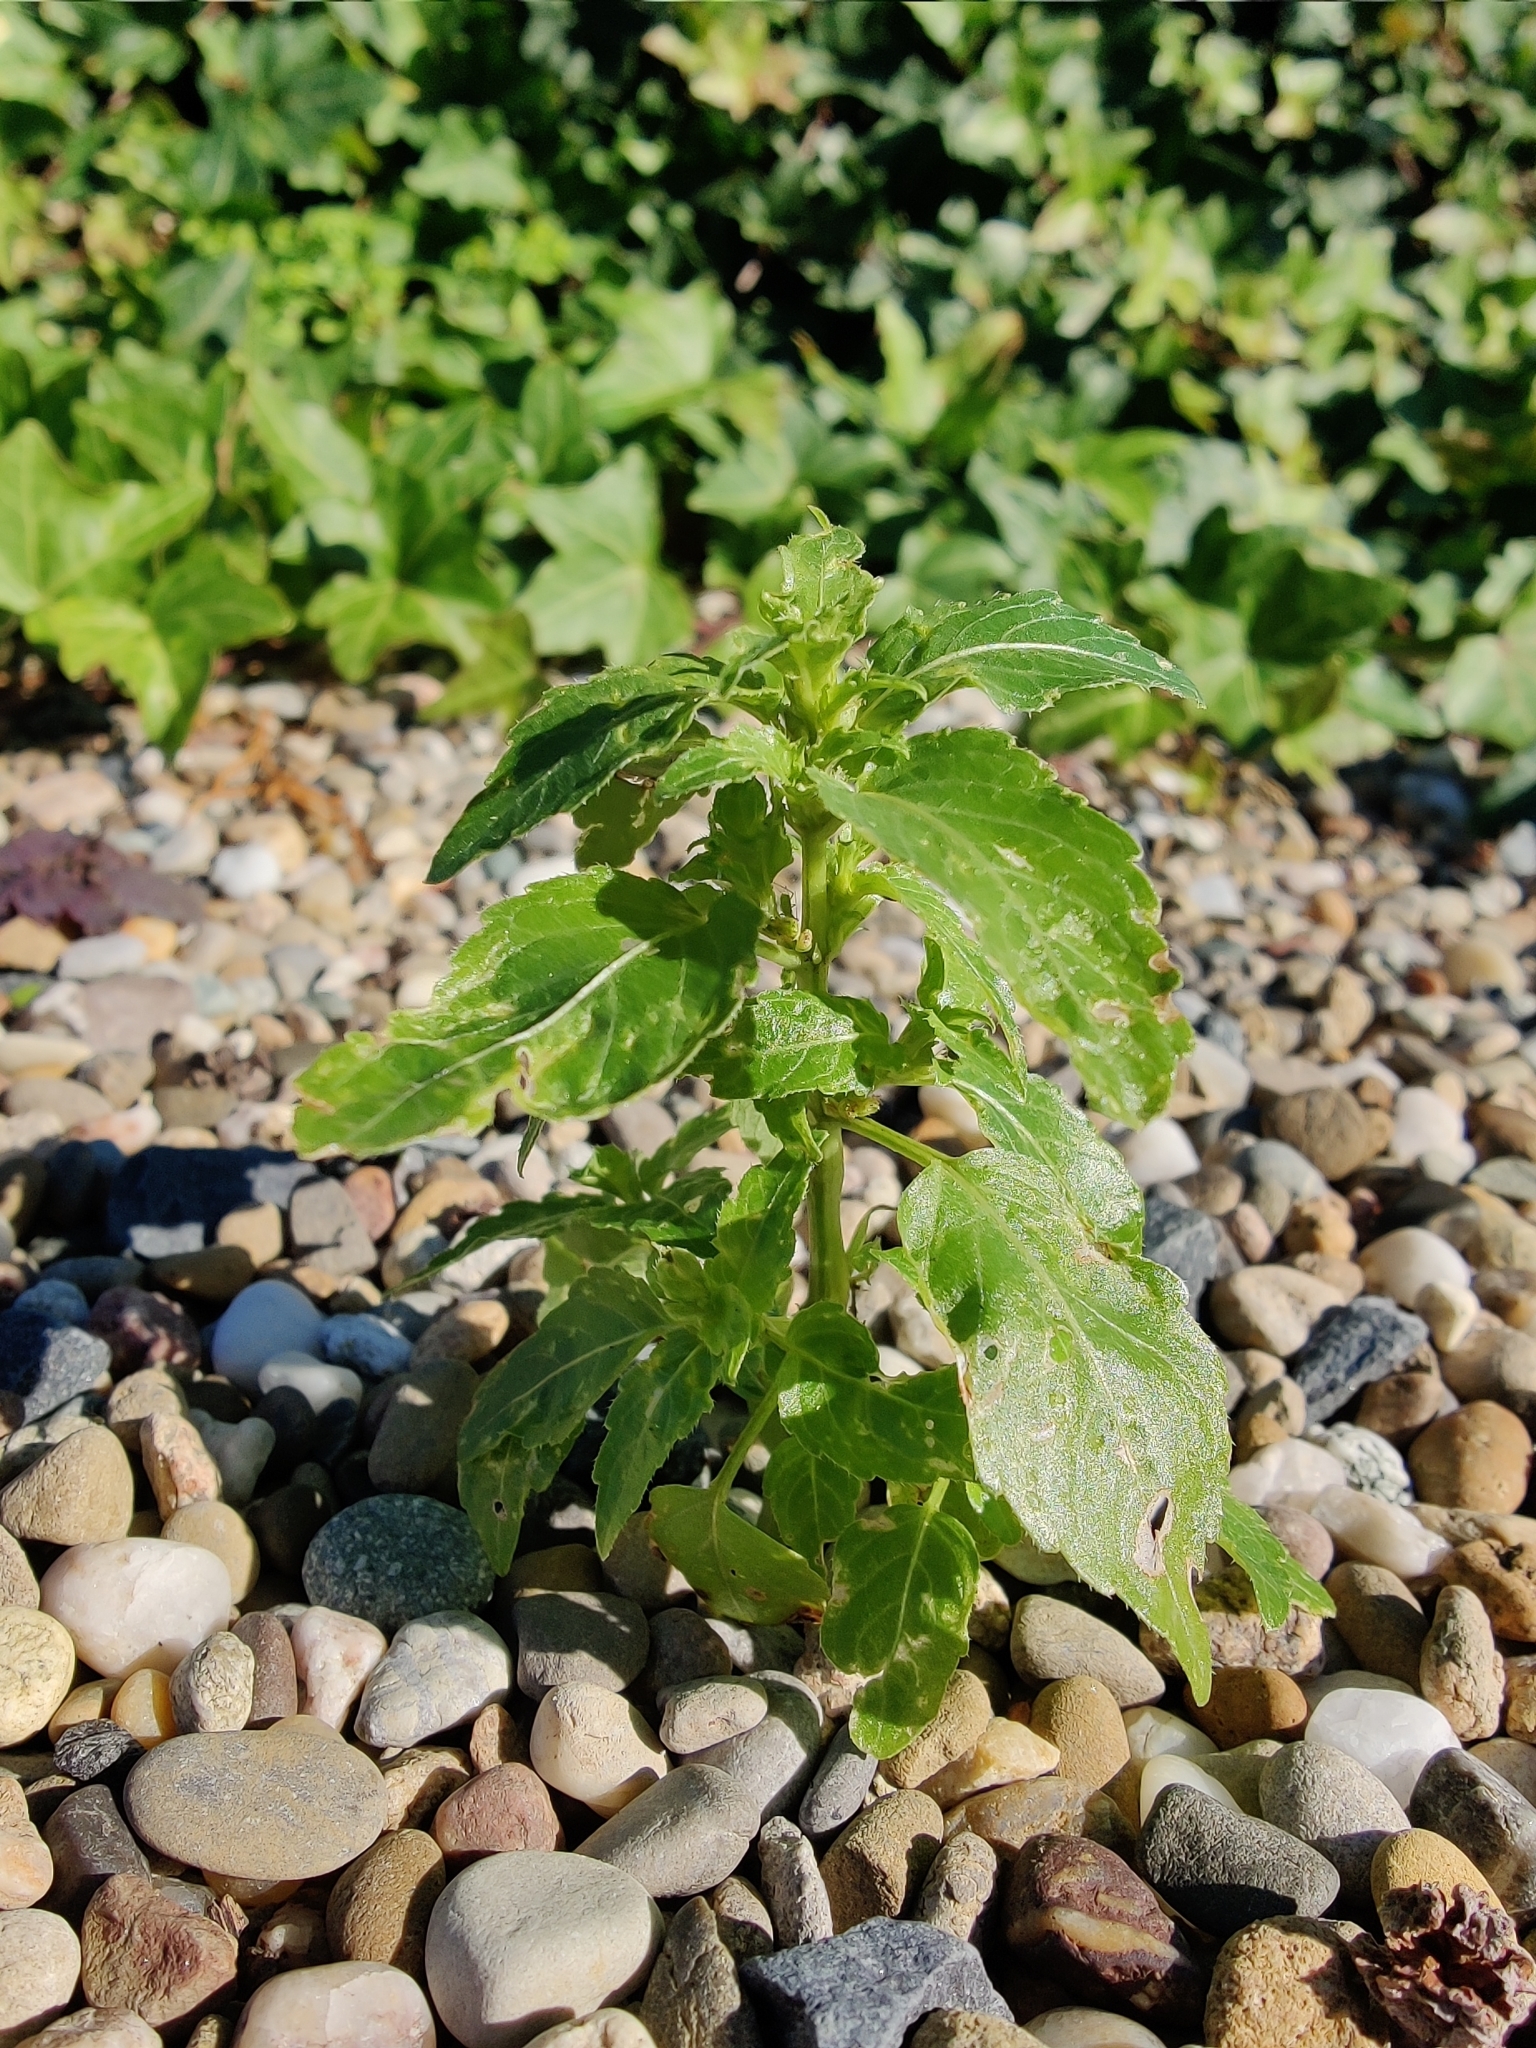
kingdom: Plantae
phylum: Tracheophyta
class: Magnoliopsida
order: Malpighiales
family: Euphorbiaceae
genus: Mercurialis
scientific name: Mercurialis annua
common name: Annual mercury
